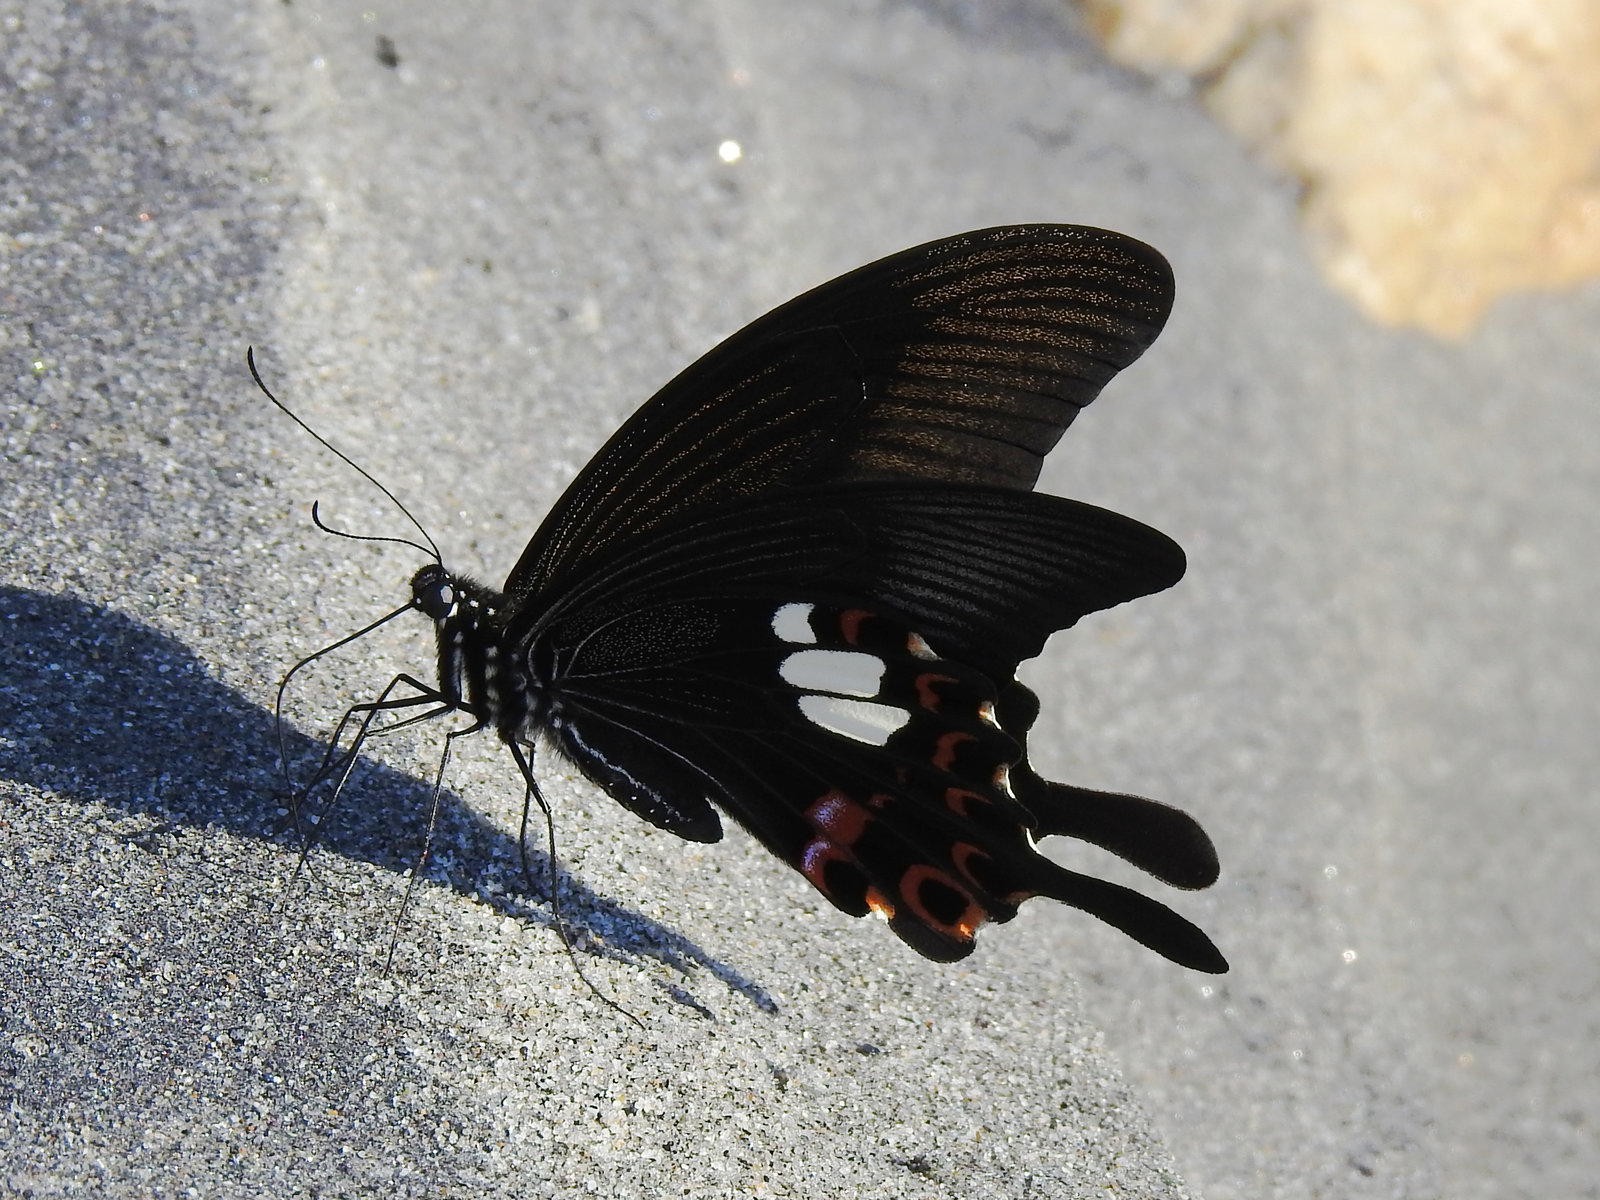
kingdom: Animalia
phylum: Arthropoda
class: Insecta
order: Lepidoptera
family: Papilionidae
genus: Papilio
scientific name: Papilio helenus
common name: Red helen
